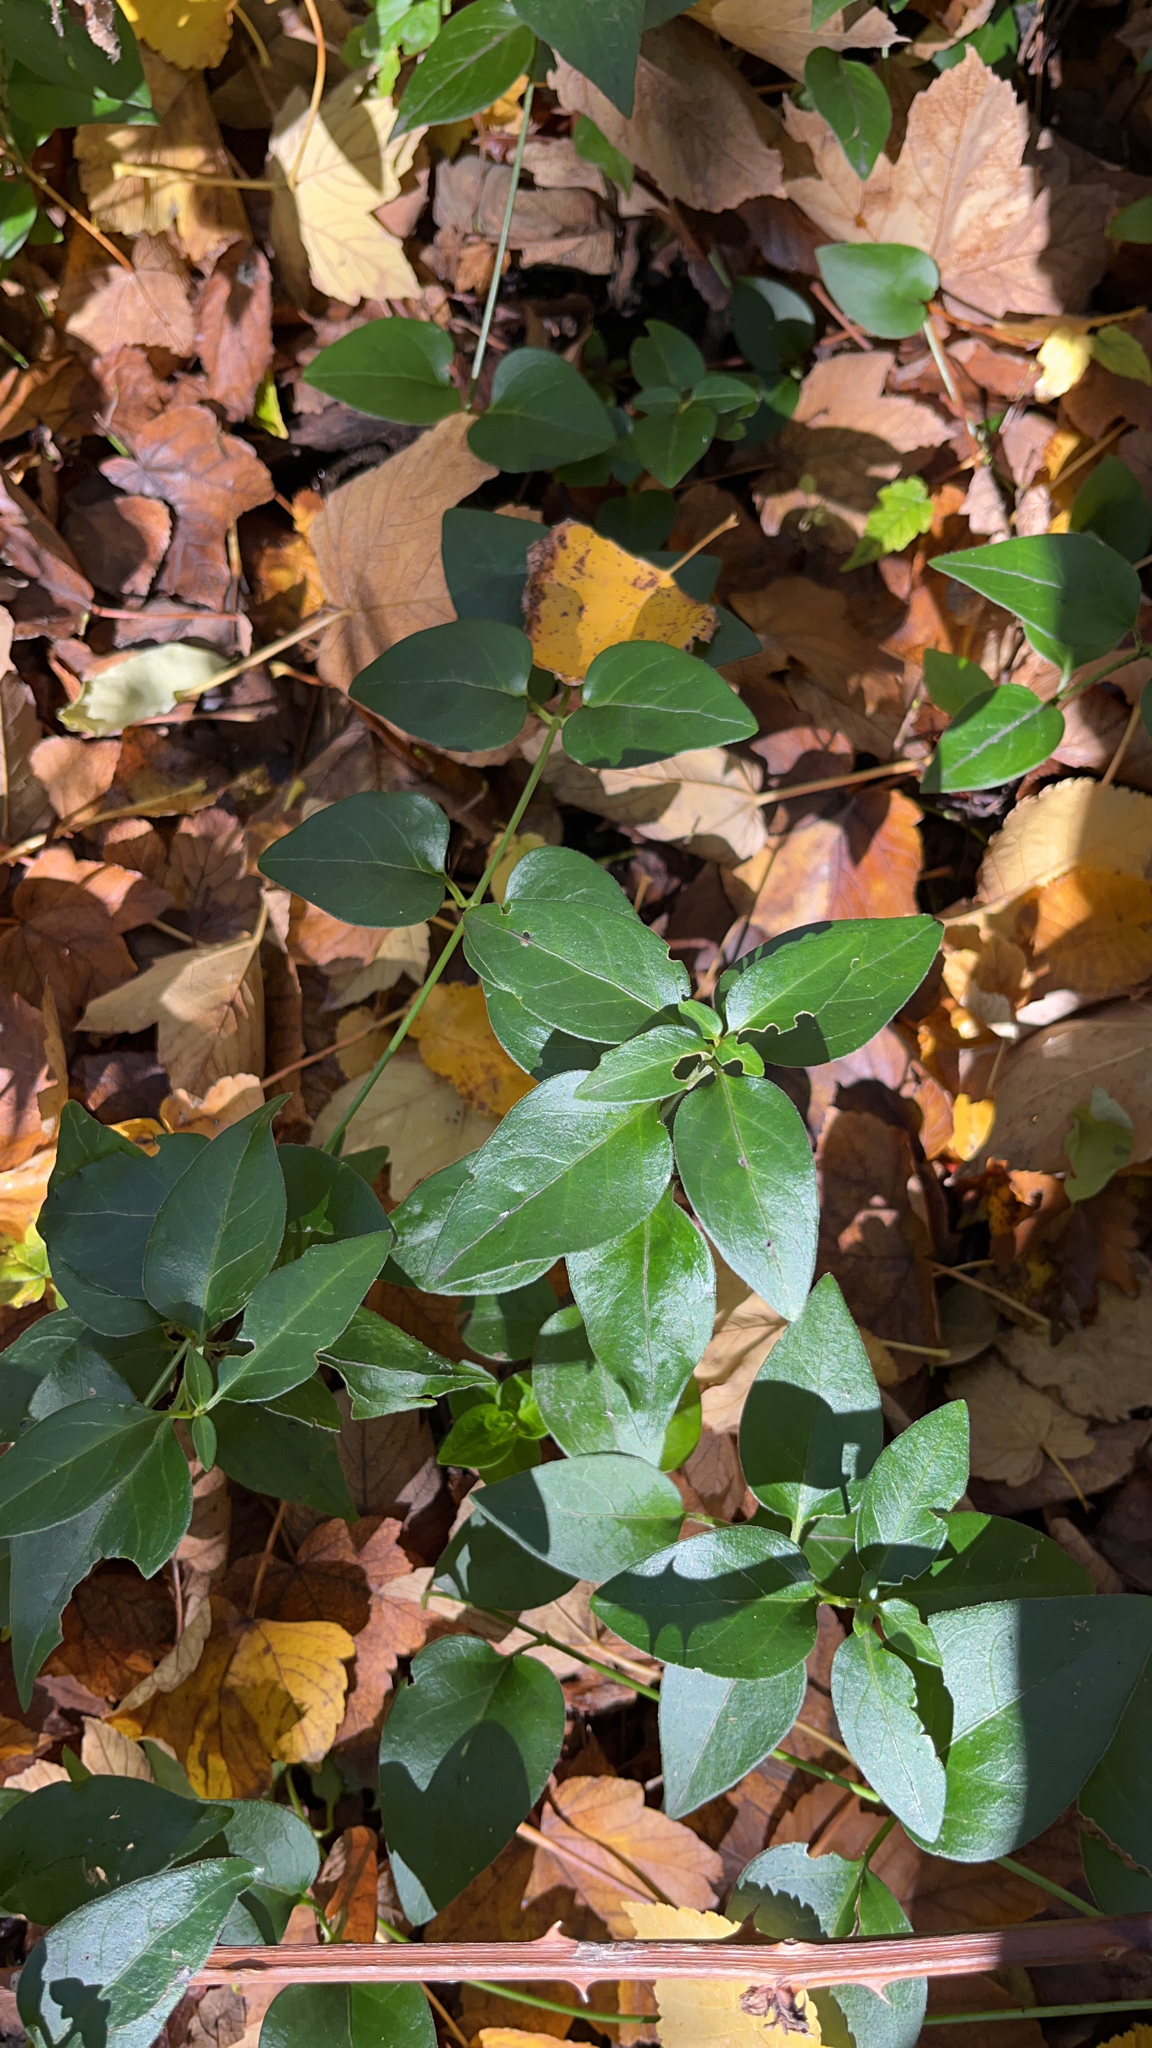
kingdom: Plantae
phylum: Tracheophyta
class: Magnoliopsida
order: Gentianales
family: Apocynaceae
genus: Vinca
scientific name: Vinca major
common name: Greater periwinkle
